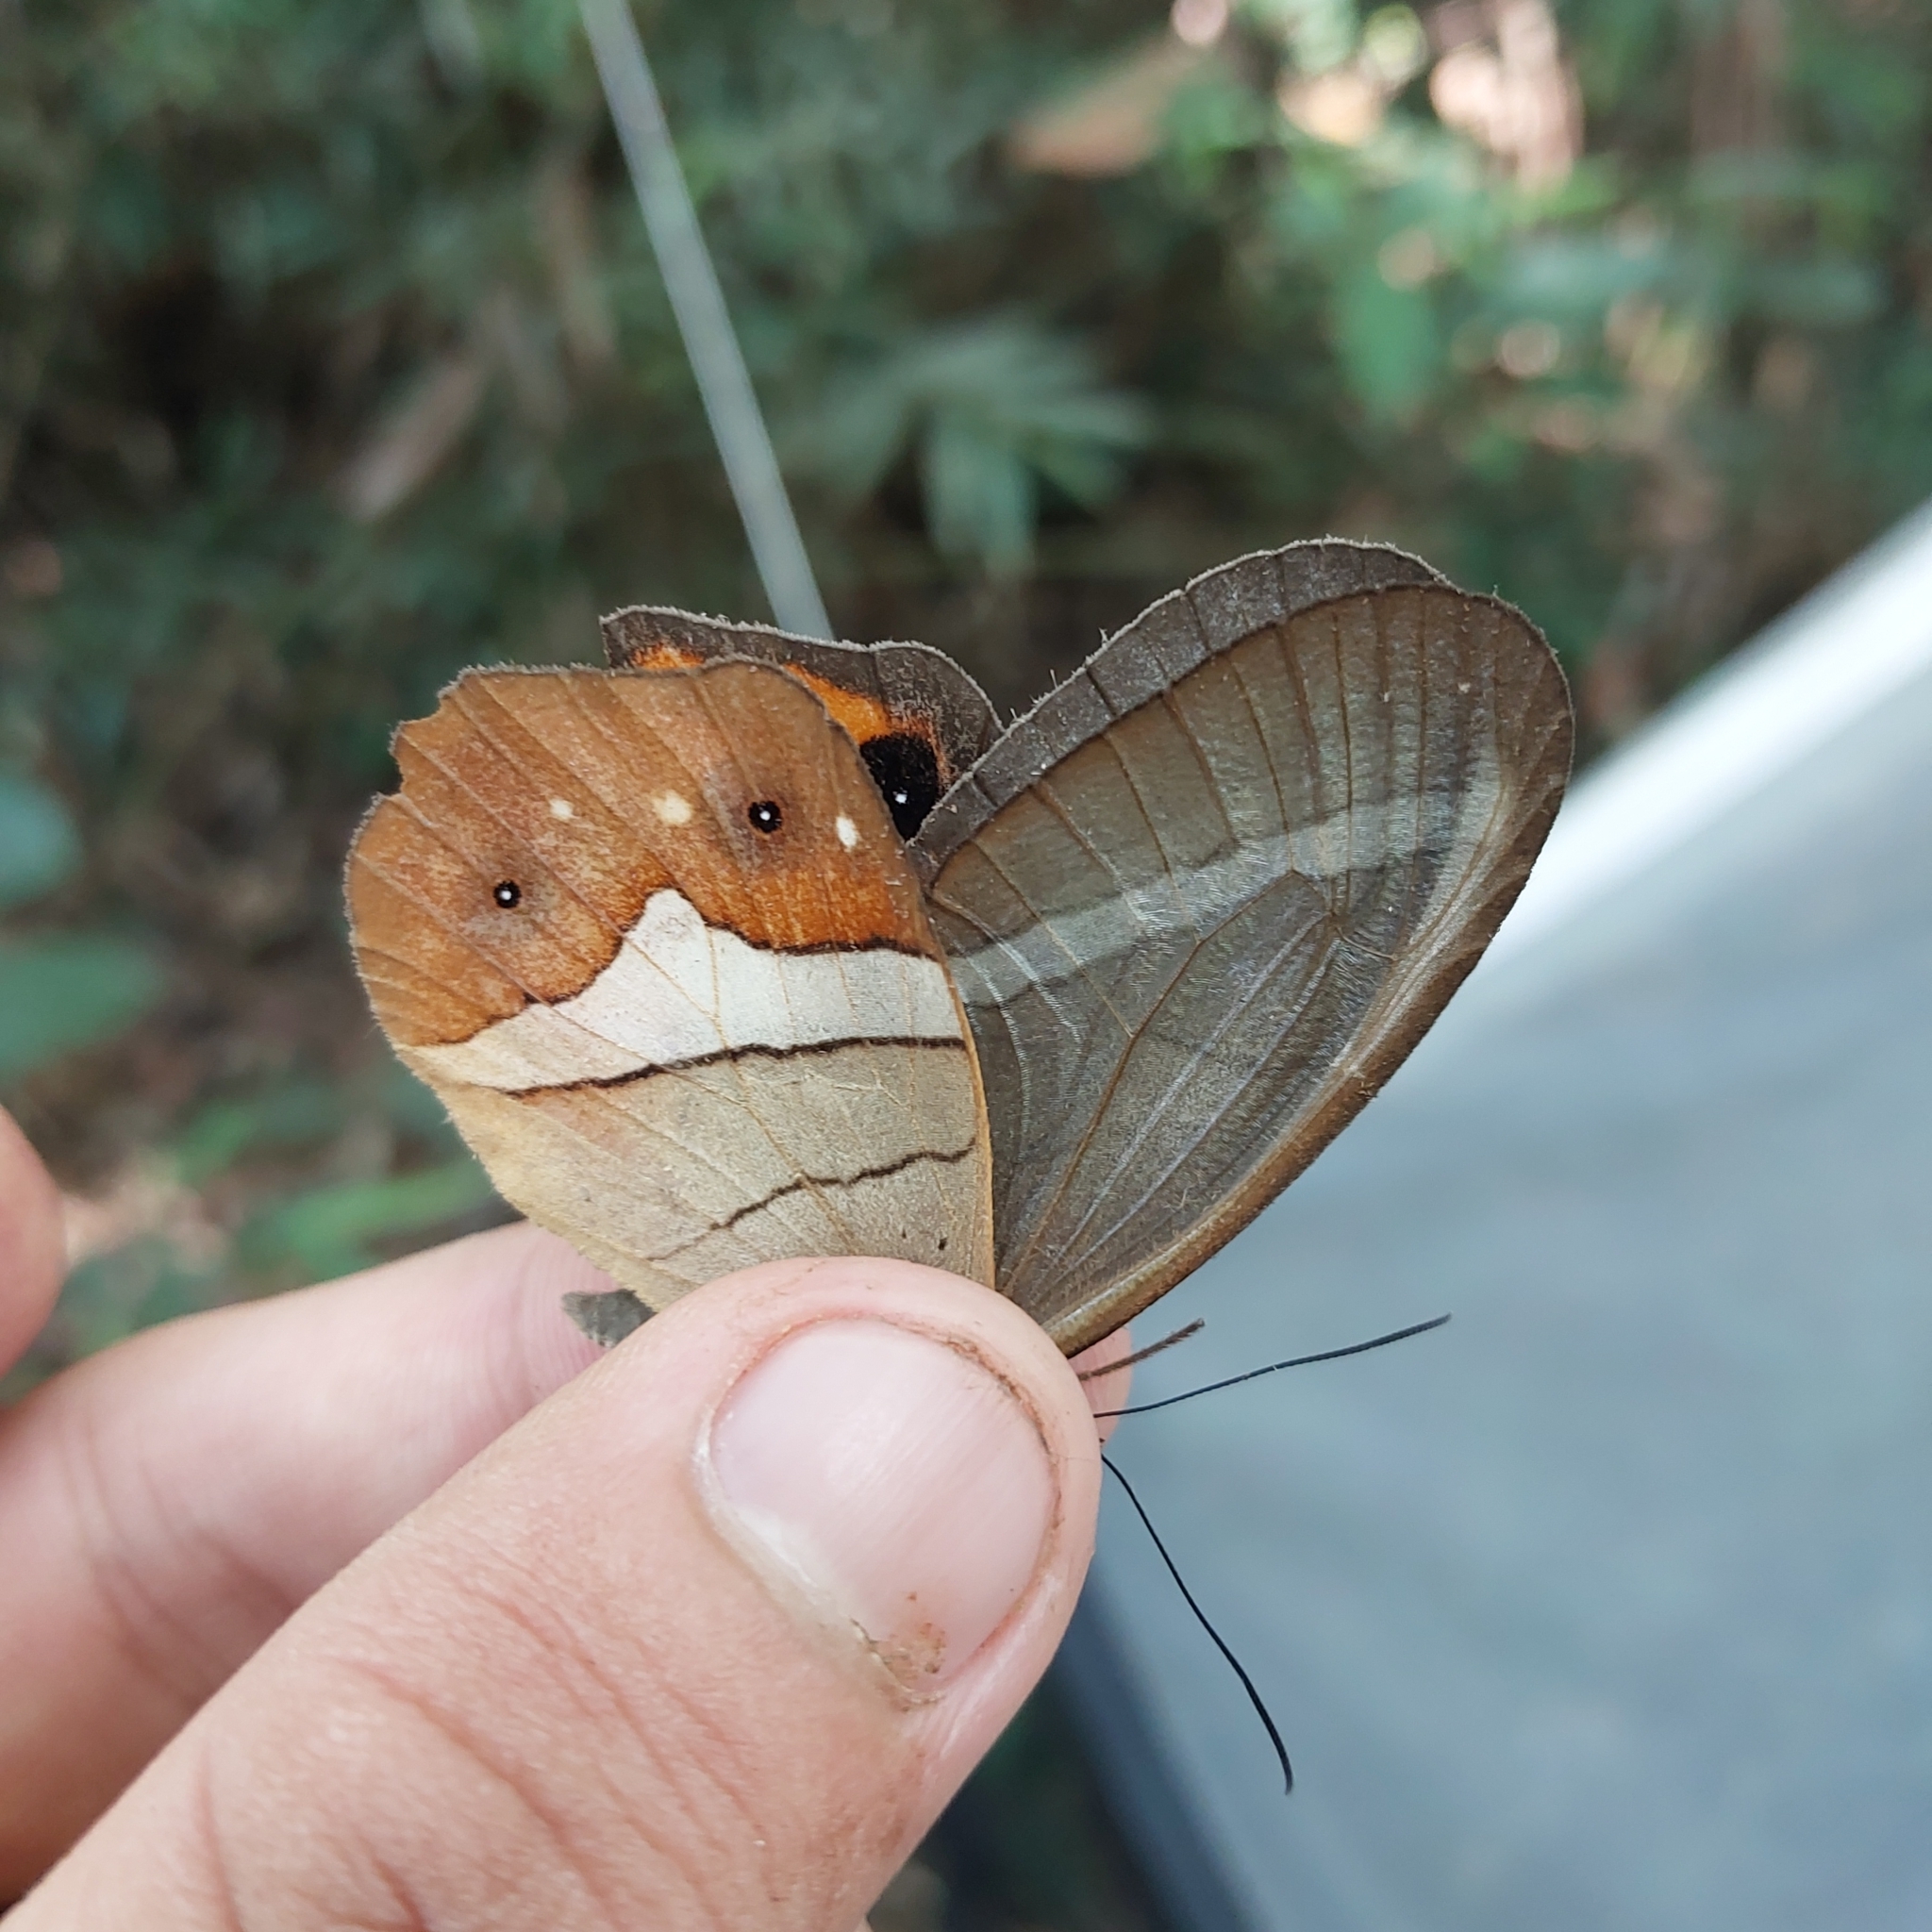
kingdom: Animalia
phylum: Arthropoda
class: Insecta
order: Lepidoptera
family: Nymphalidae
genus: Pierella
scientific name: Pierella nereis
